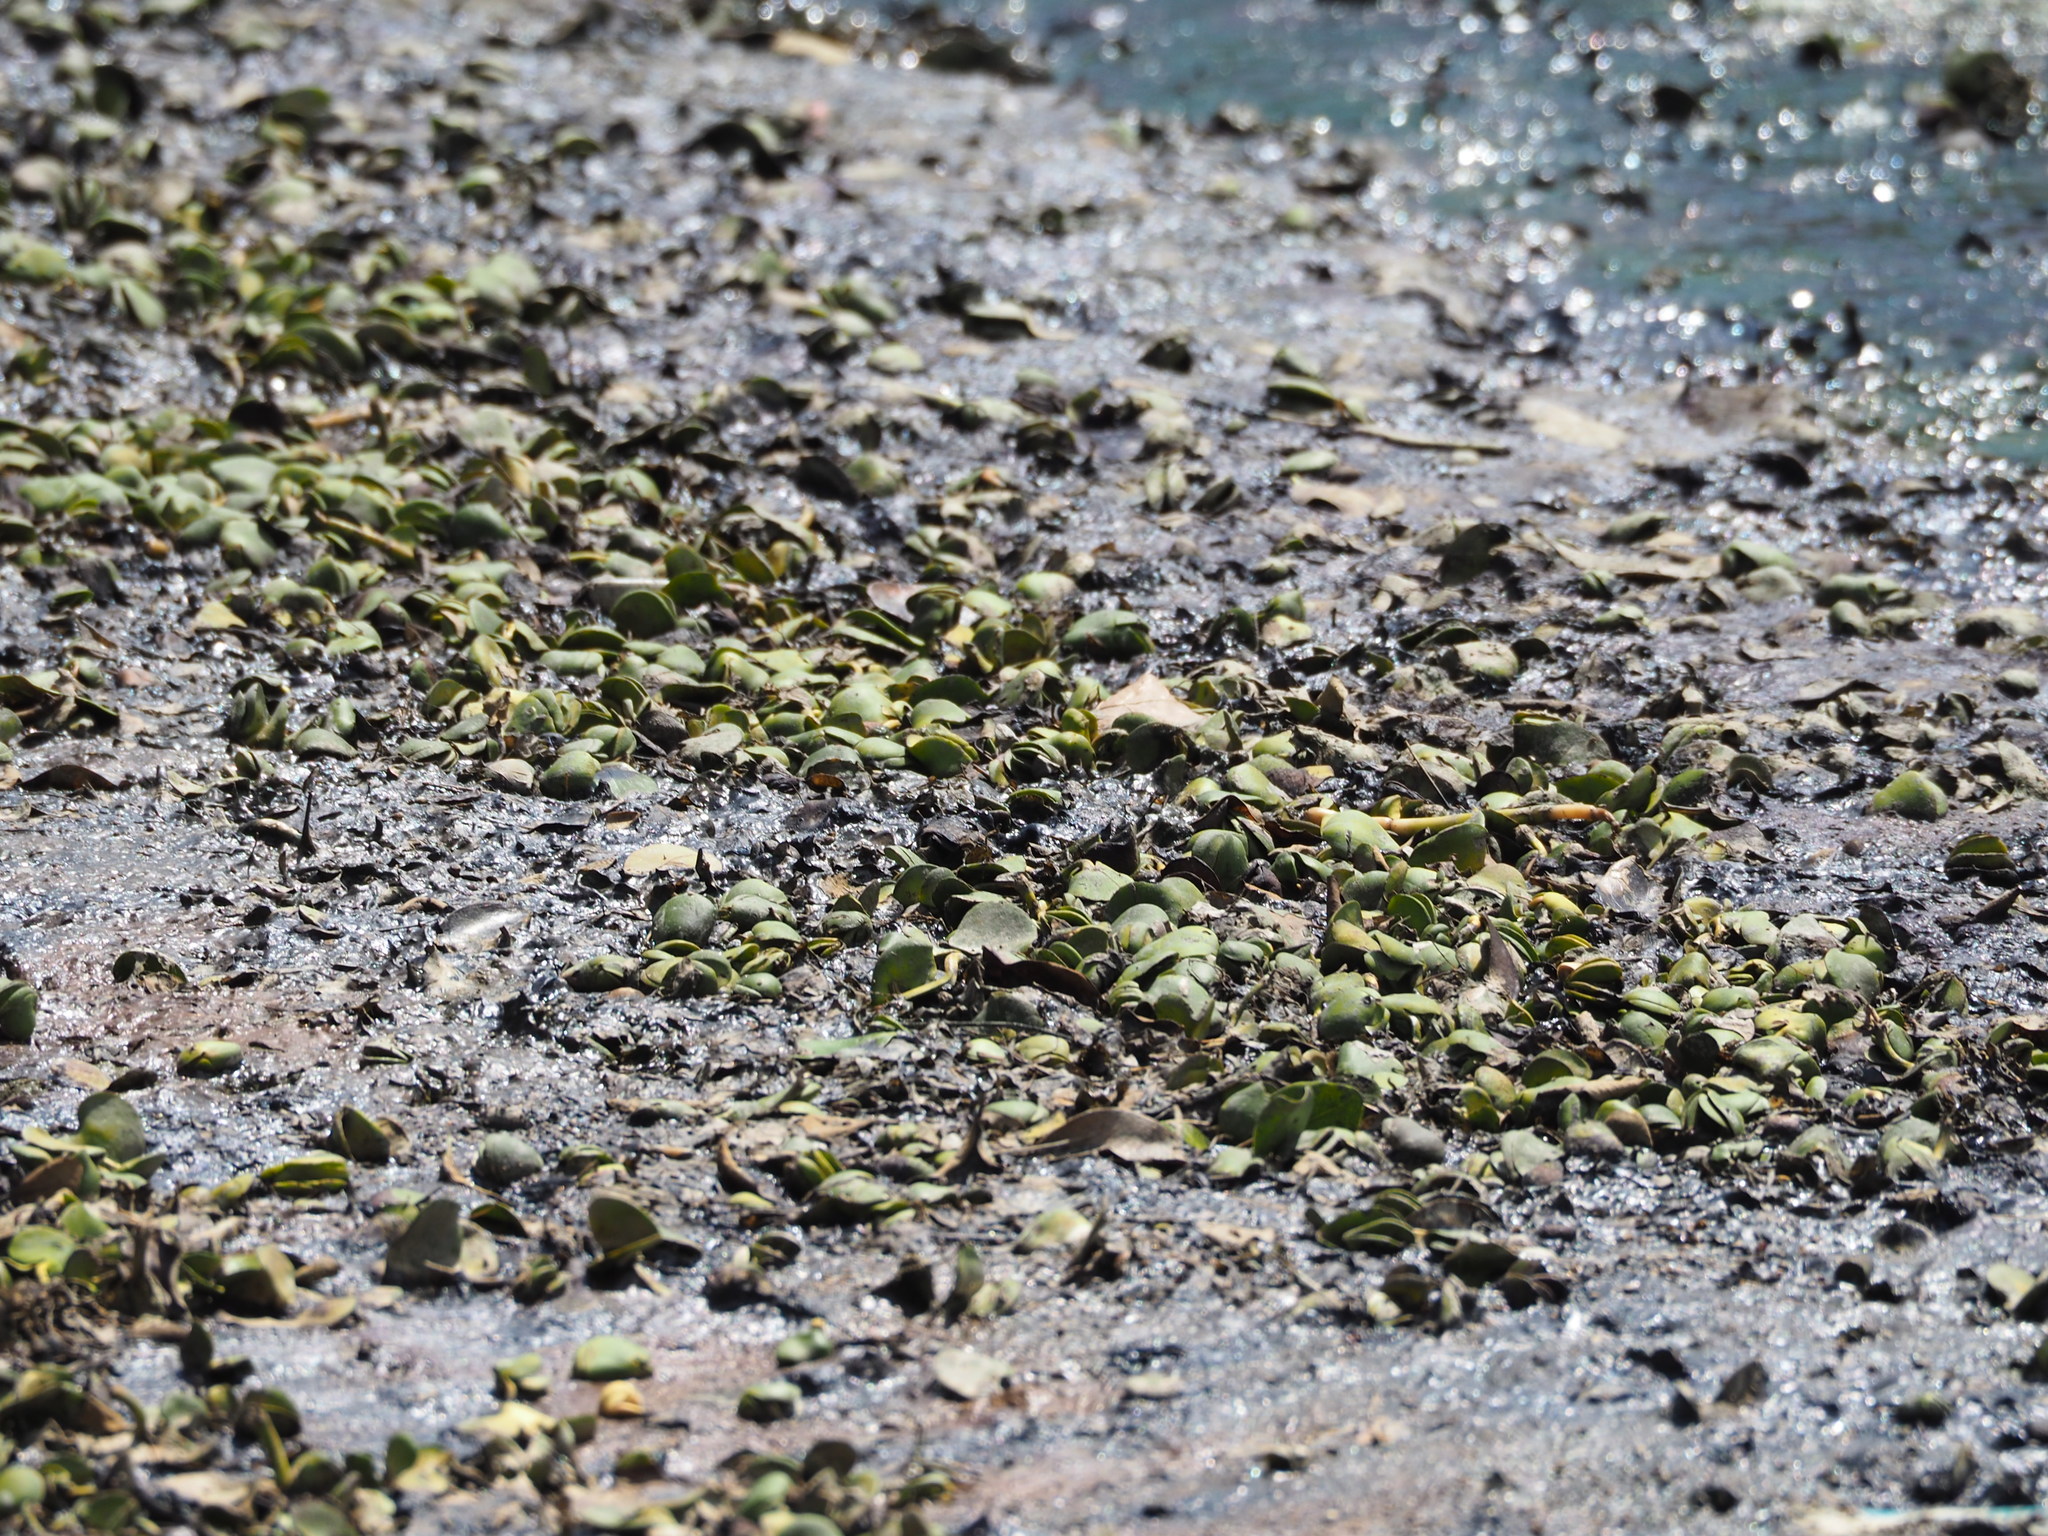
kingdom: Plantae
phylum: Tracheophyta
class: Magnoliopsida
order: Lamiales
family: Acanthaceae
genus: Avicennia
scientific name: Avicennia marina
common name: Gray mangrove
